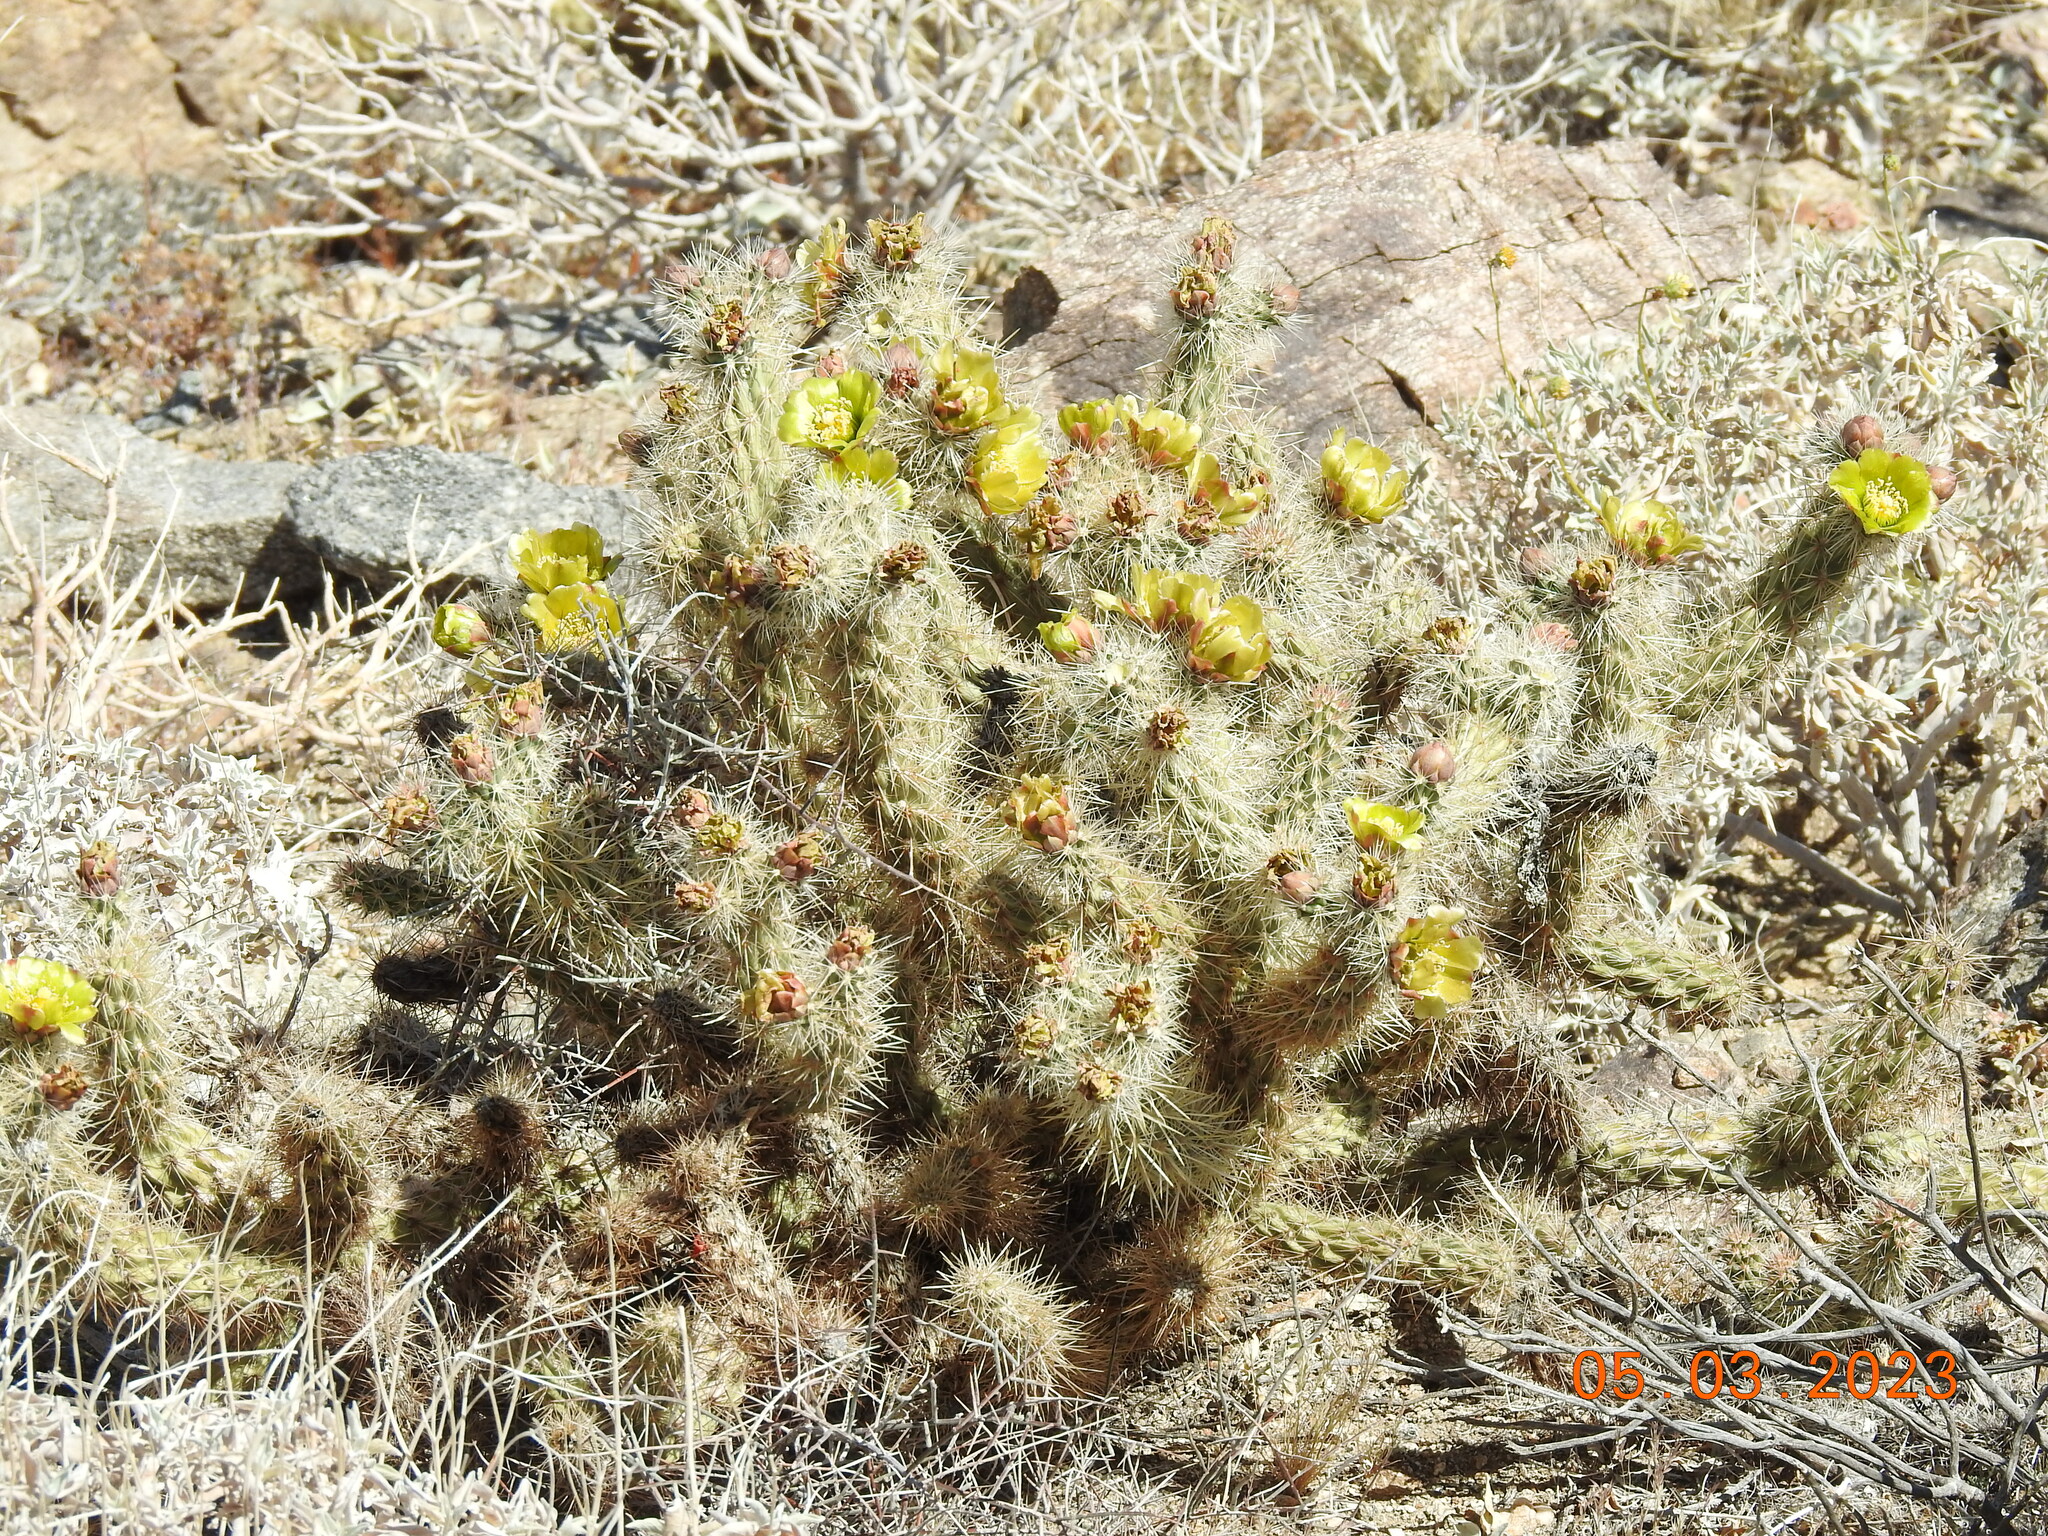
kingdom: Plantae
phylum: Tracheophyta
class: Magnoliopsida
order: Caryophyllales
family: Cactaceae
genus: Cylindropuntia
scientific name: Cylindropuntia ganderi
